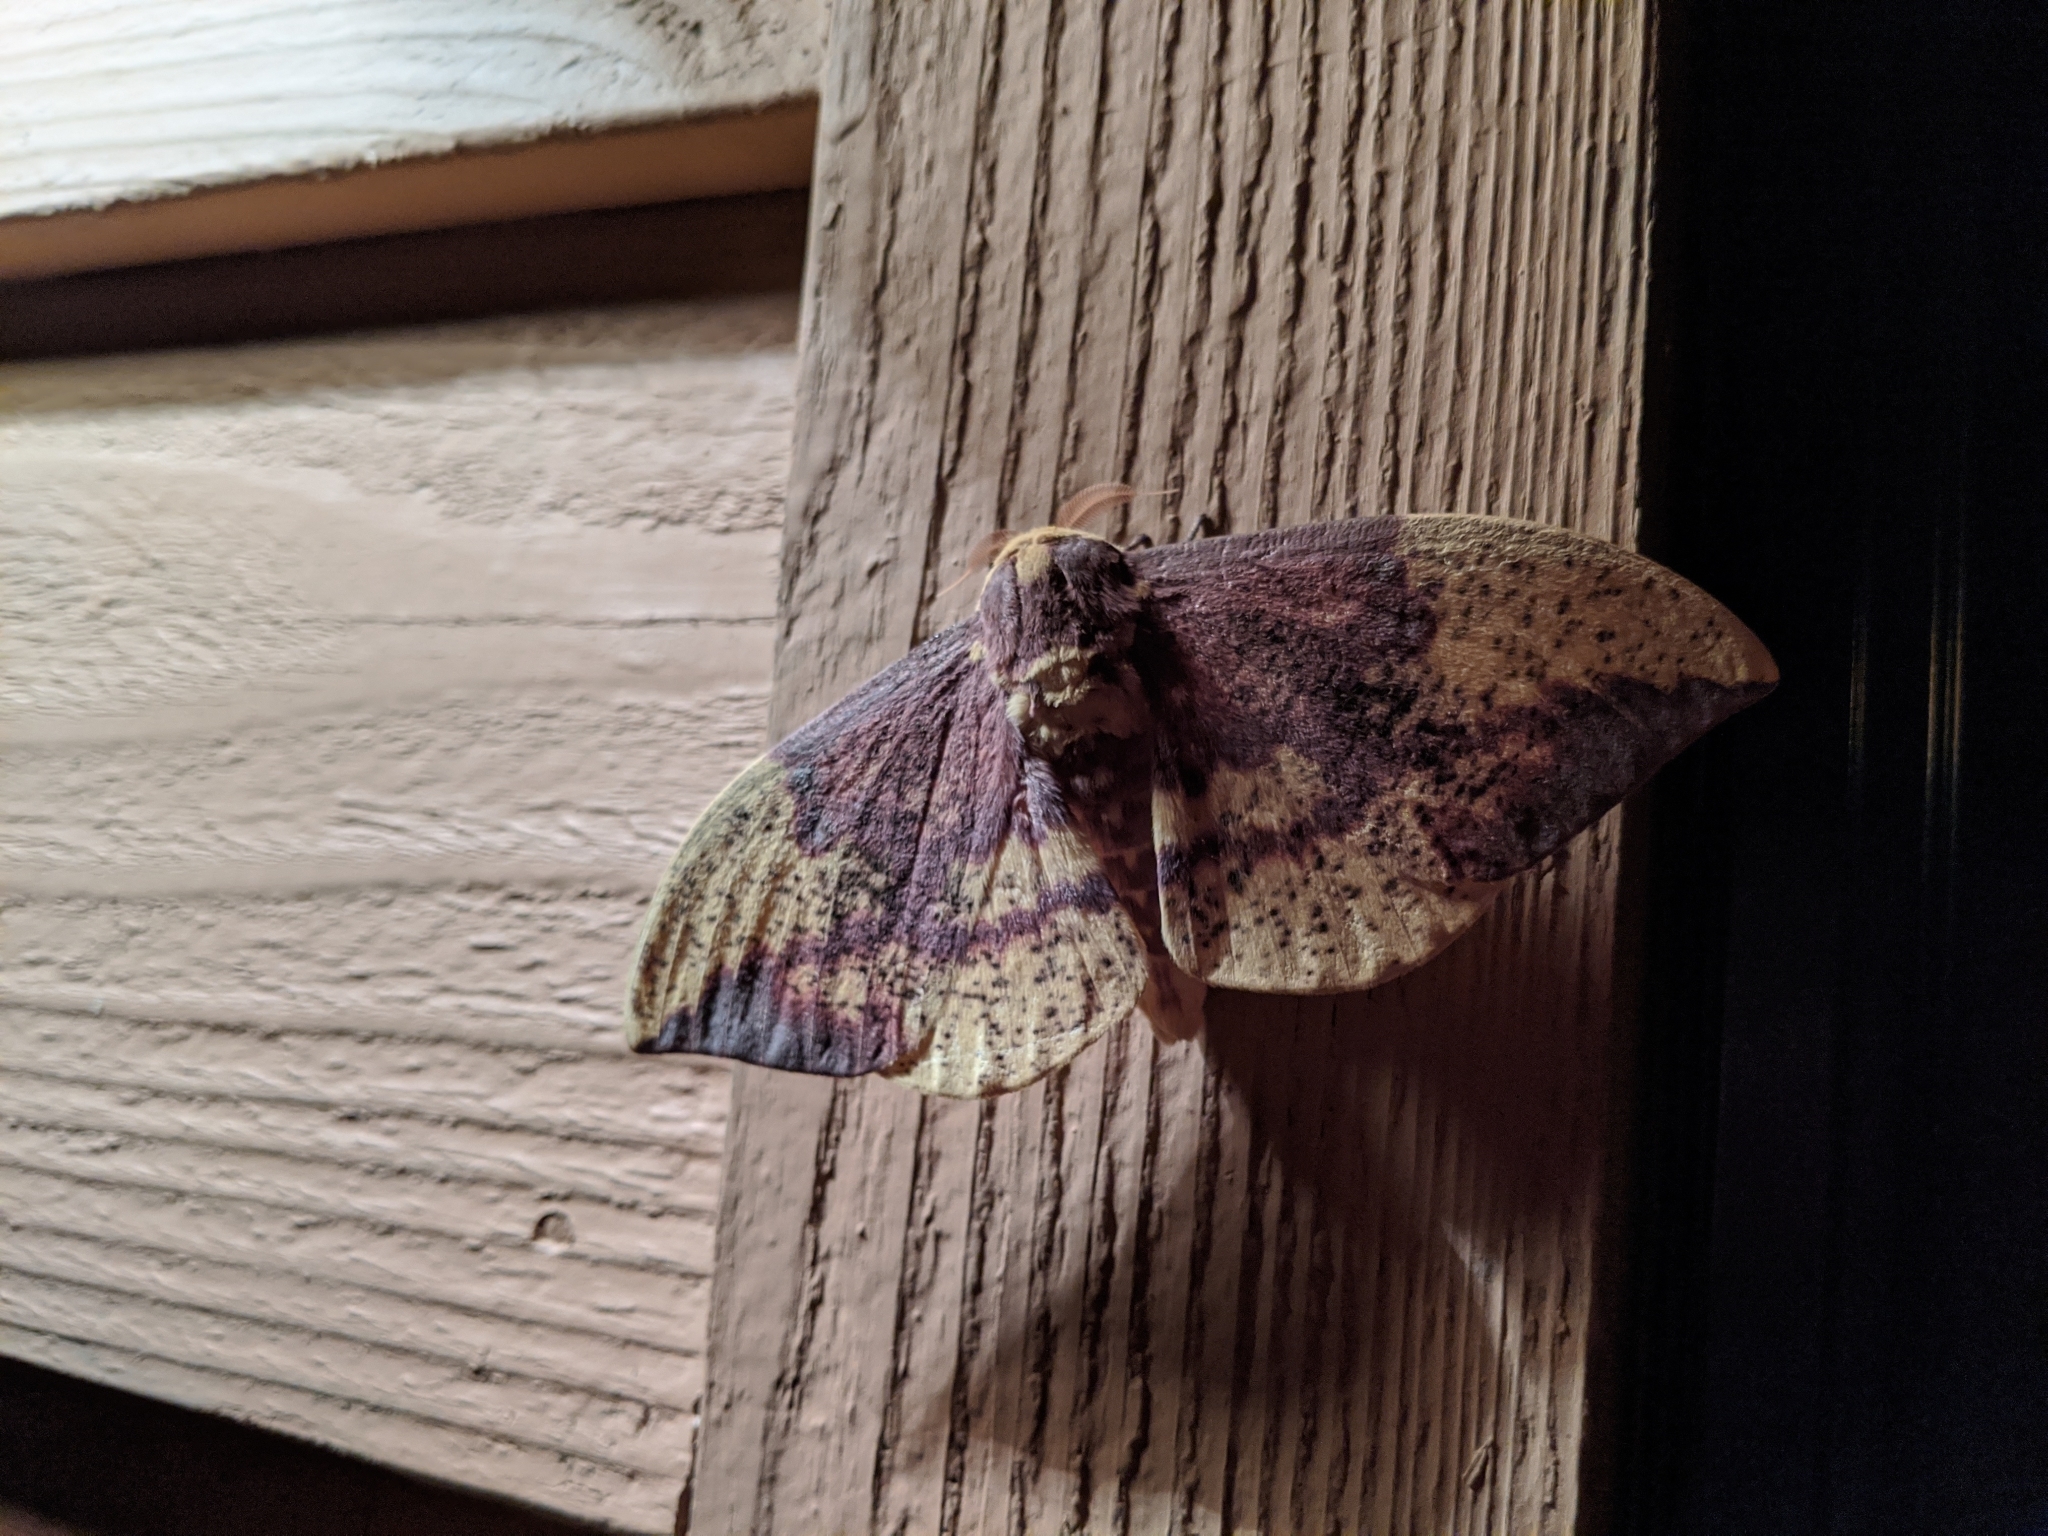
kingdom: Animalia
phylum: Arthropoda
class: Insecta
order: Lepidoptera
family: Saturniidae
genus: Eacles
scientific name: Eacles imperialis
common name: Imperial moth
